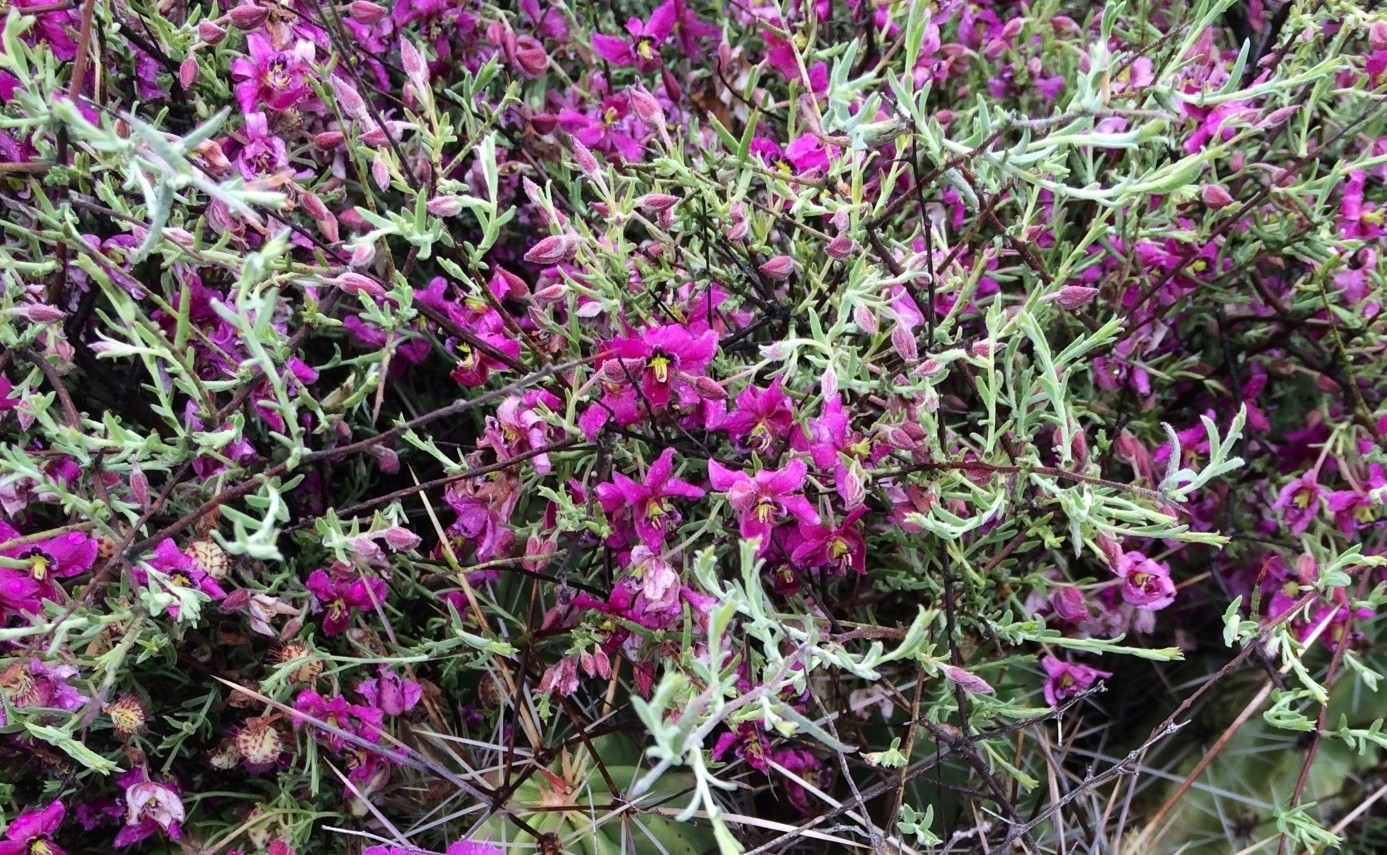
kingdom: Plantae
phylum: Tracheophyta
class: Magnoliopsida
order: Zygophyllales
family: Krameriaceae
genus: Krameria
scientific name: Krameria erecta
